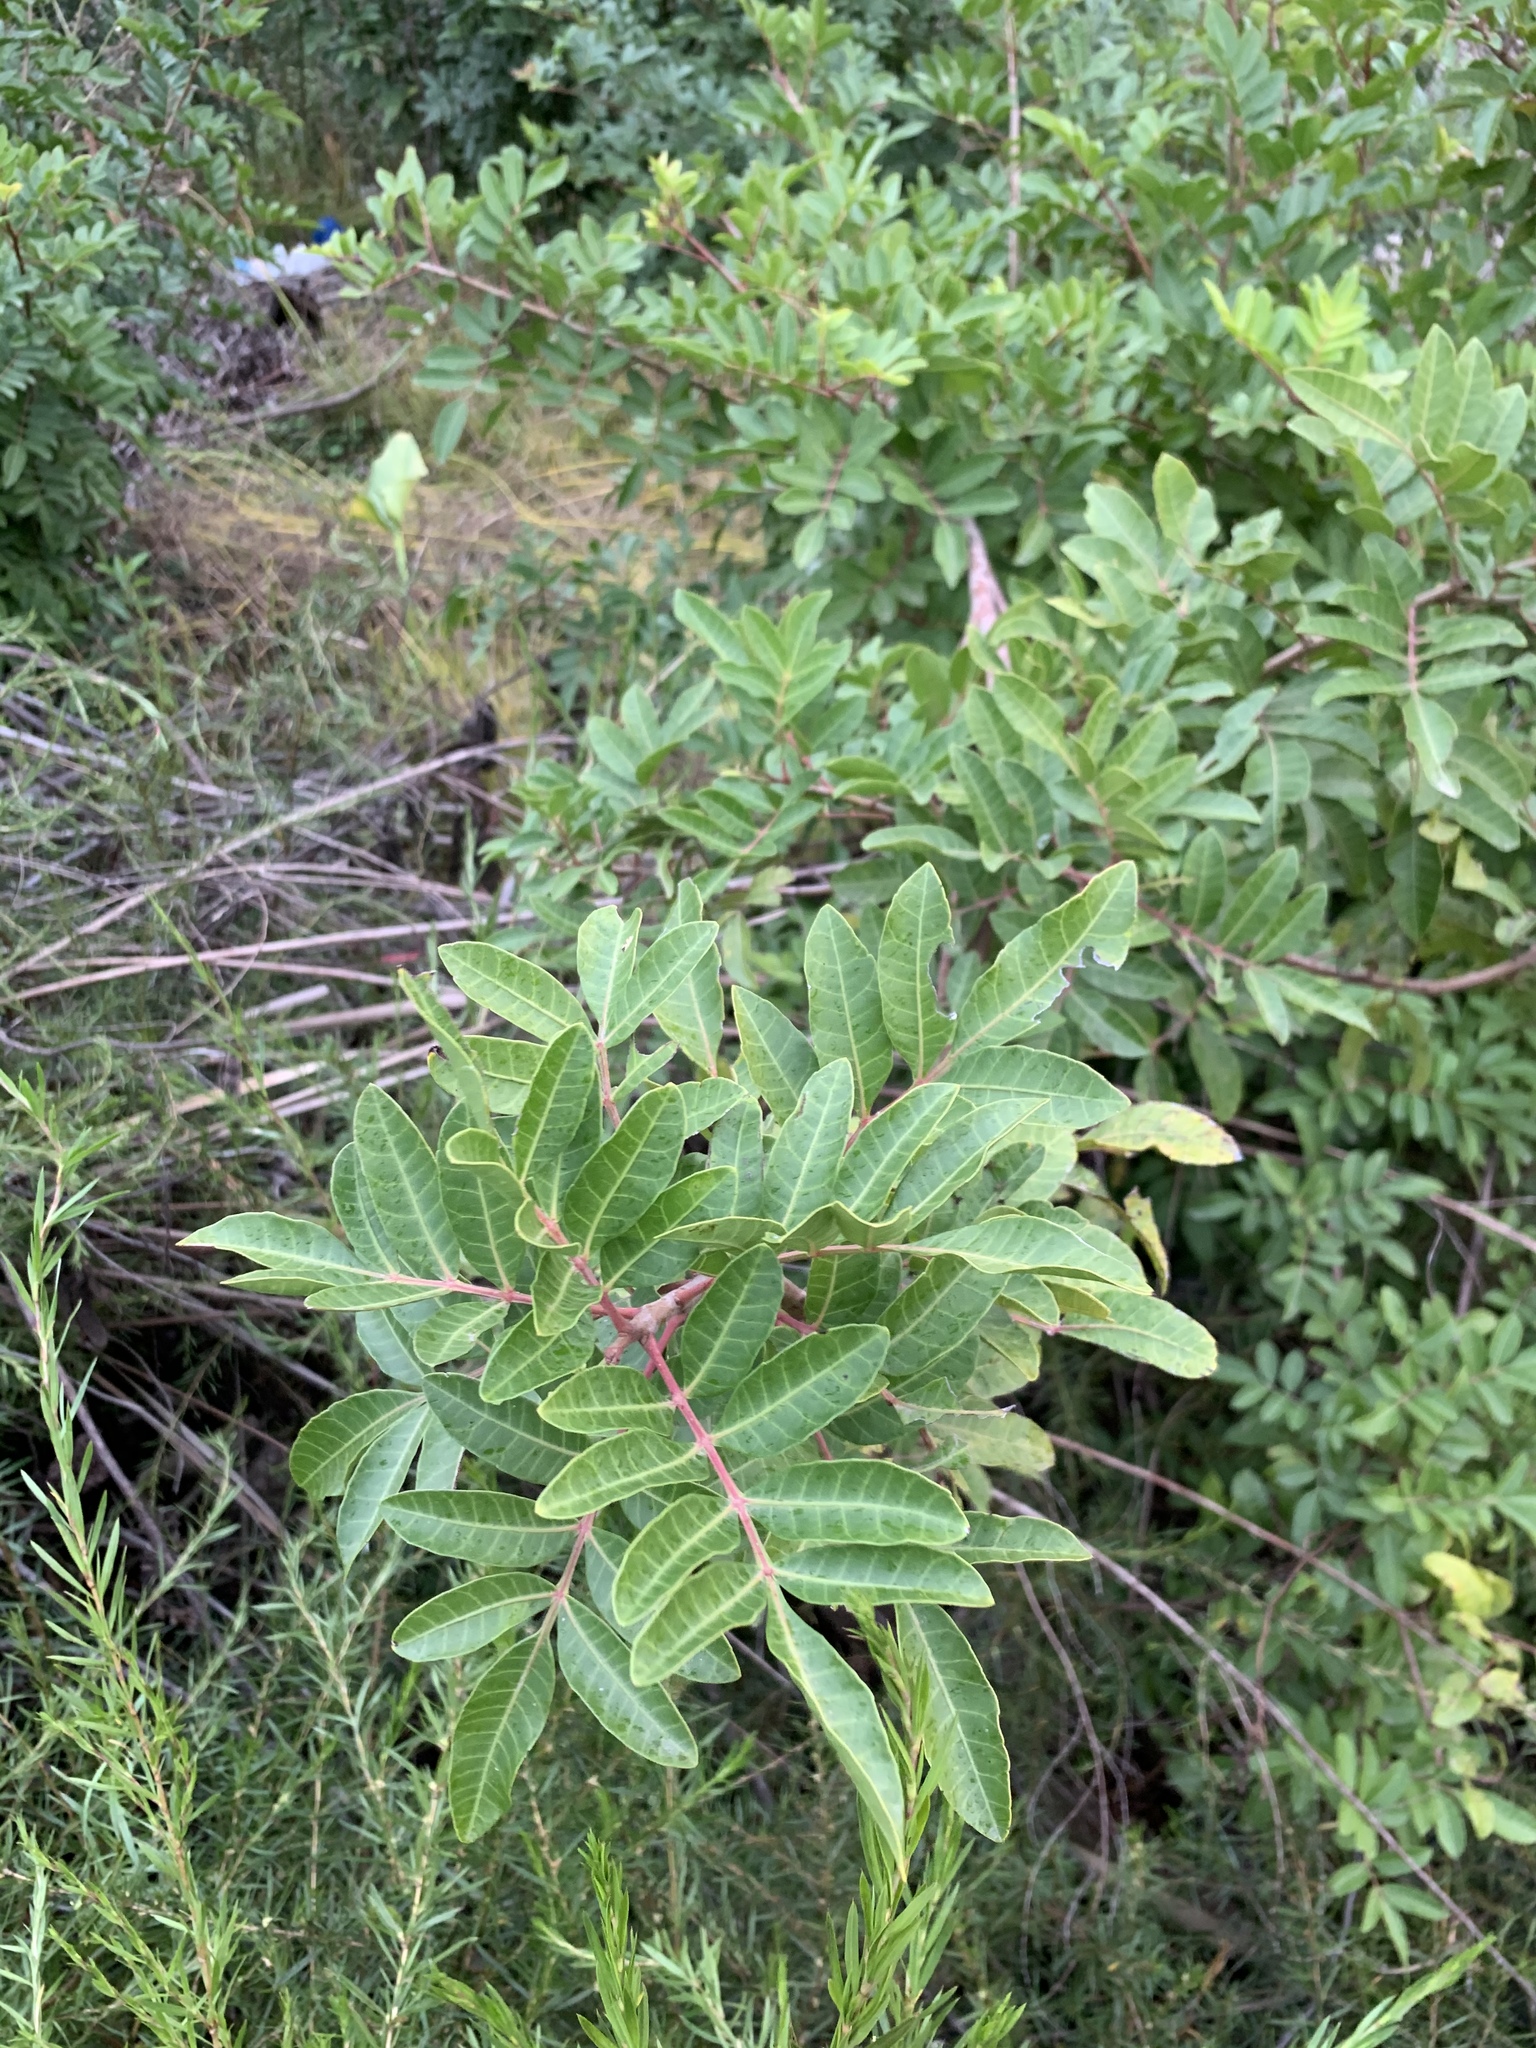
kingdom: Plantae
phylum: Tracheophyta
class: Magnoliopsida
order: Sapindales
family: Anacardiaceae
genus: Schinus
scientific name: Schinus terebinthifolia
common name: Brazilian peppertree
